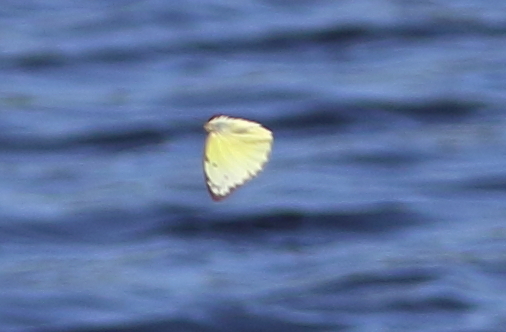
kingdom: Animalia
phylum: Arthropoda
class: Insecta
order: Lepidoptera
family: Pieridae
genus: Catopsilia
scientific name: Catopsilia pomona
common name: Common emigrant
